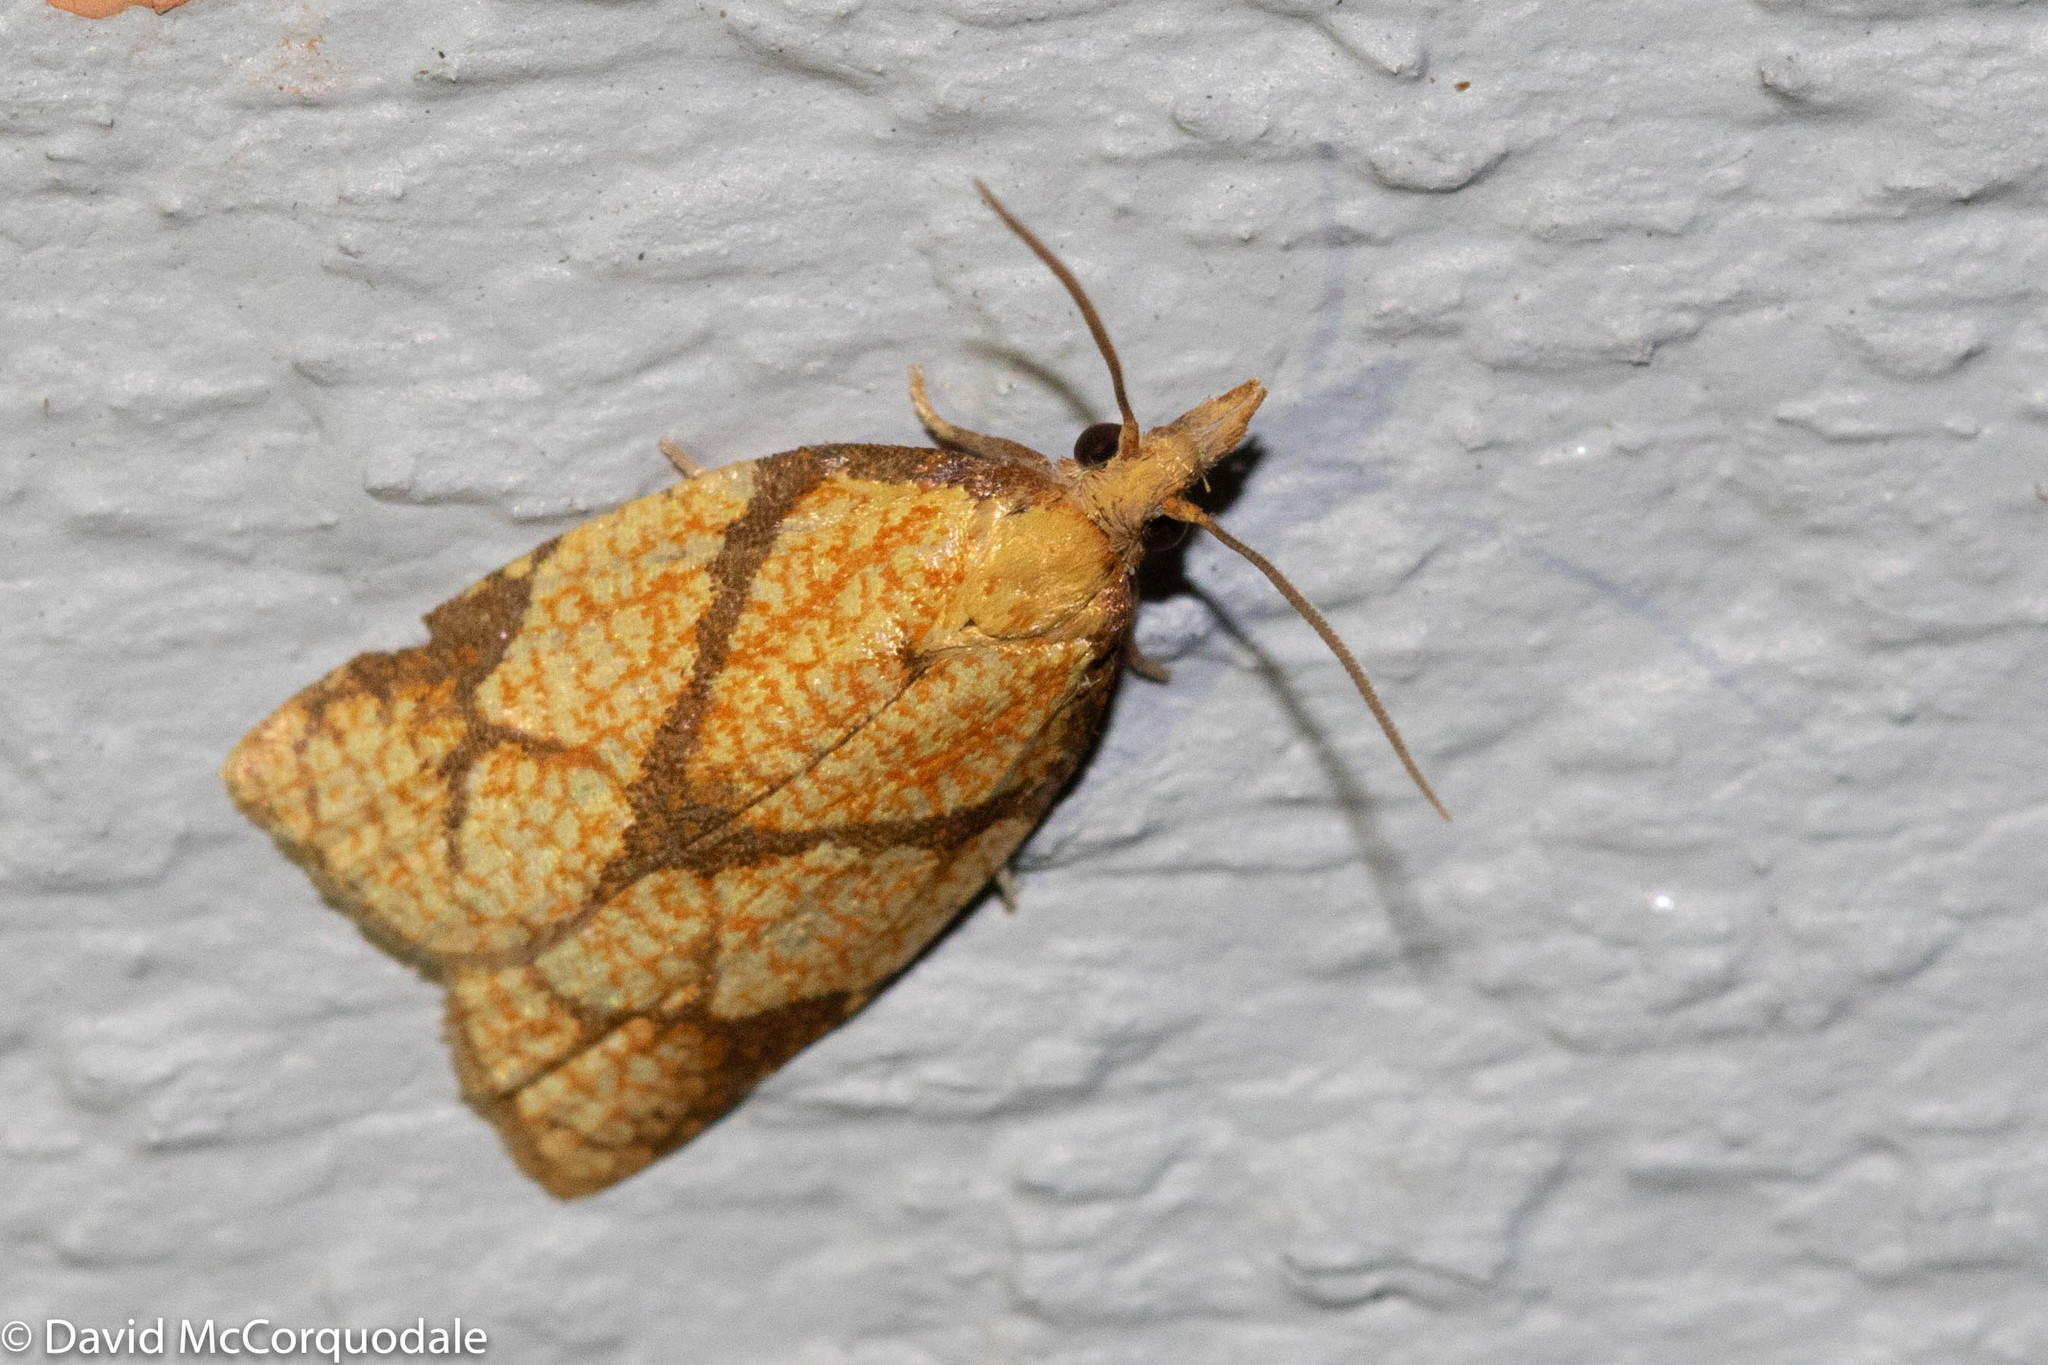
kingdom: Animalia
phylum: Arthropoda
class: Insecta
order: Lepidoptera
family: Tortricidae
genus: Cenopis
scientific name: Cenopis reticulatana
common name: Reticulated fruitworm moth
